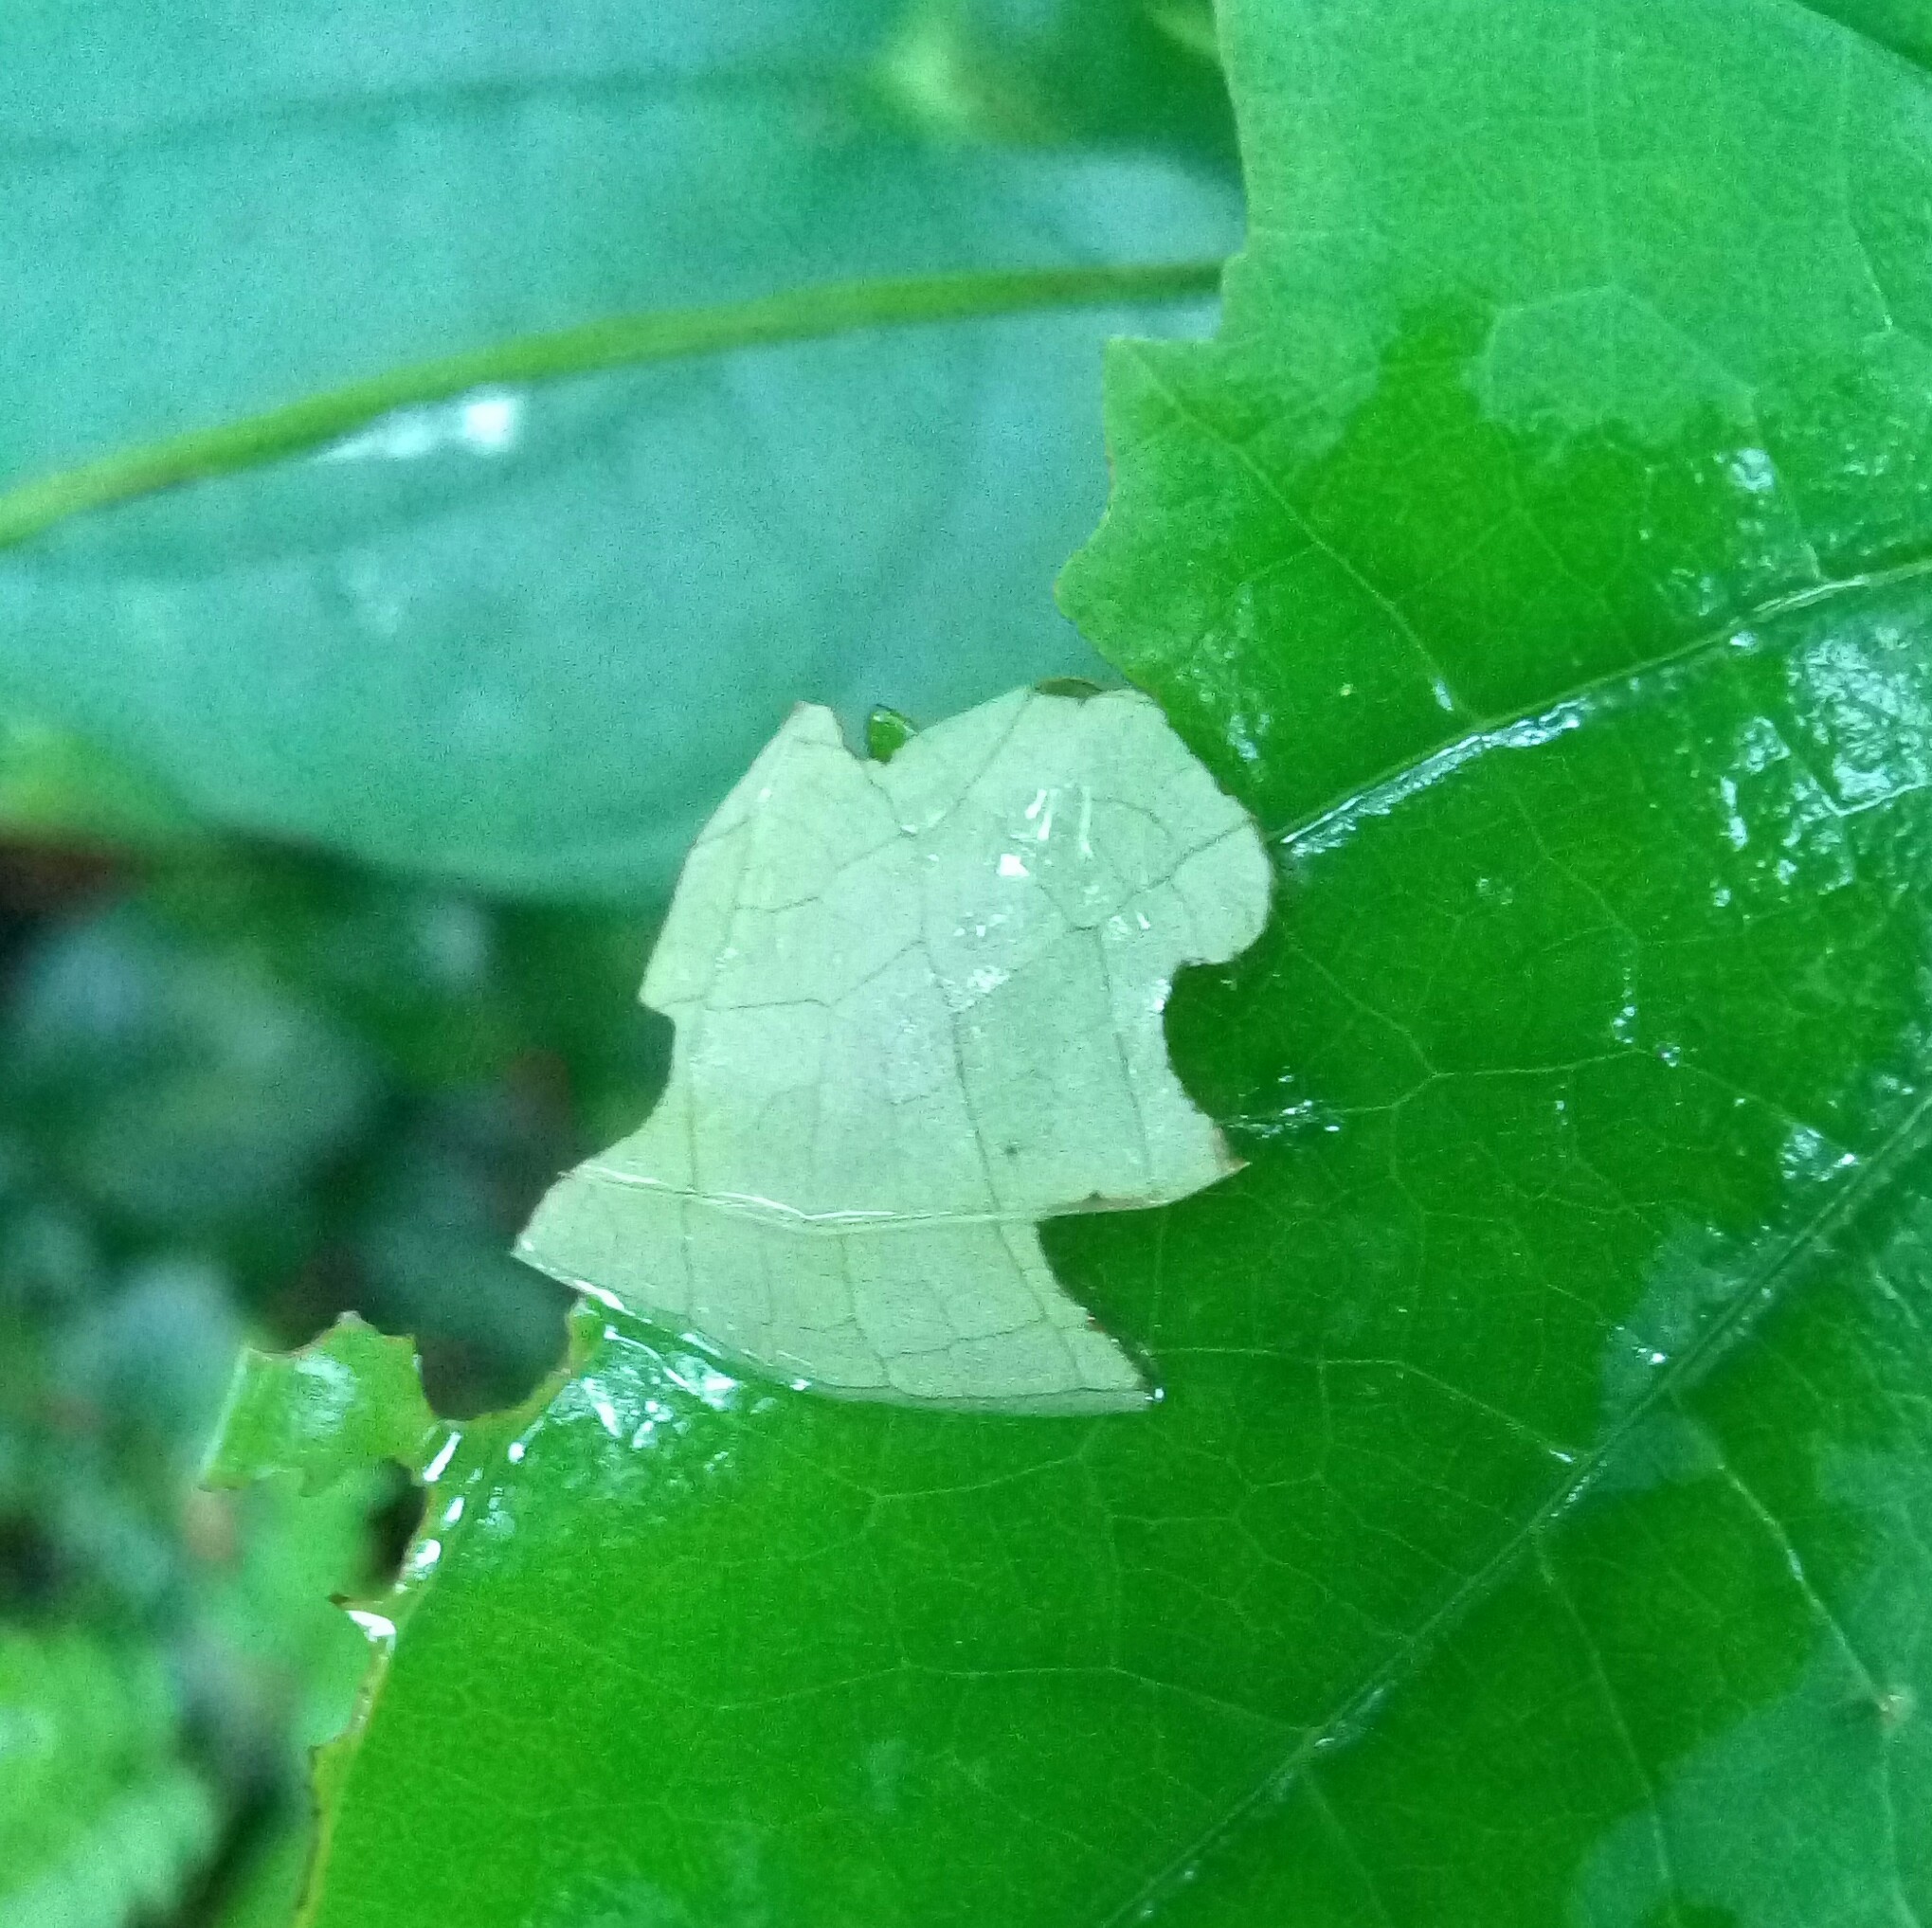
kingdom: Animalia
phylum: Arthropoda
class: Insecta
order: Lepidoptera
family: Hesperiidae
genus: Tagiades
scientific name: Tagiades litigiosa
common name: Water snow flat
